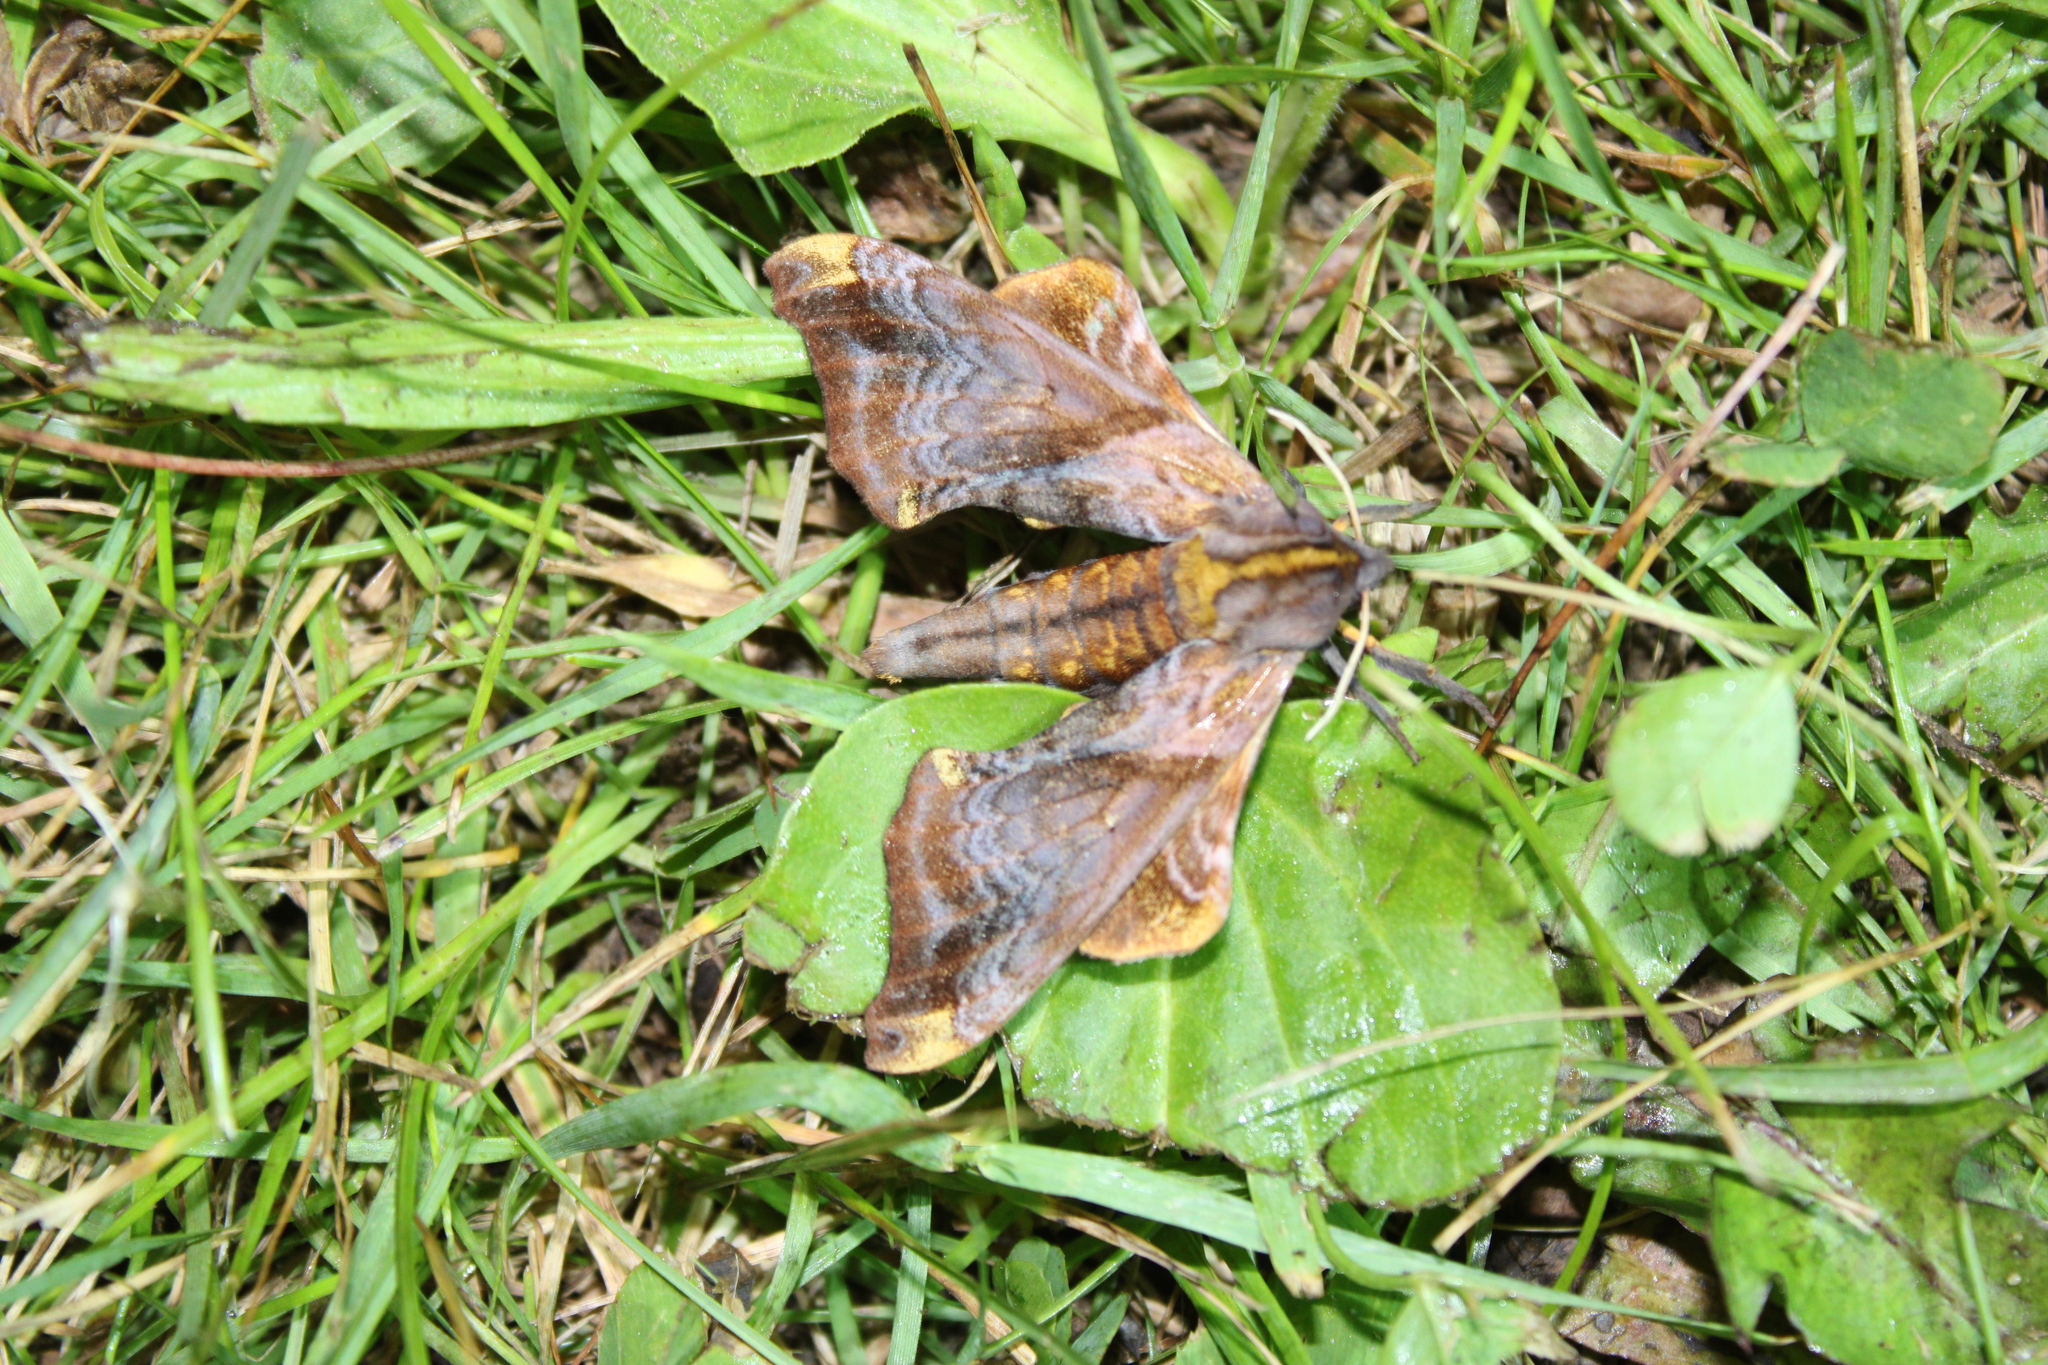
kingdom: Animalia
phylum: Arthropoda
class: Insecta
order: Lepidoptera
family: Sphingidae
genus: Paonias
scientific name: Paonias myops
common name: Small-eyed sphinx
